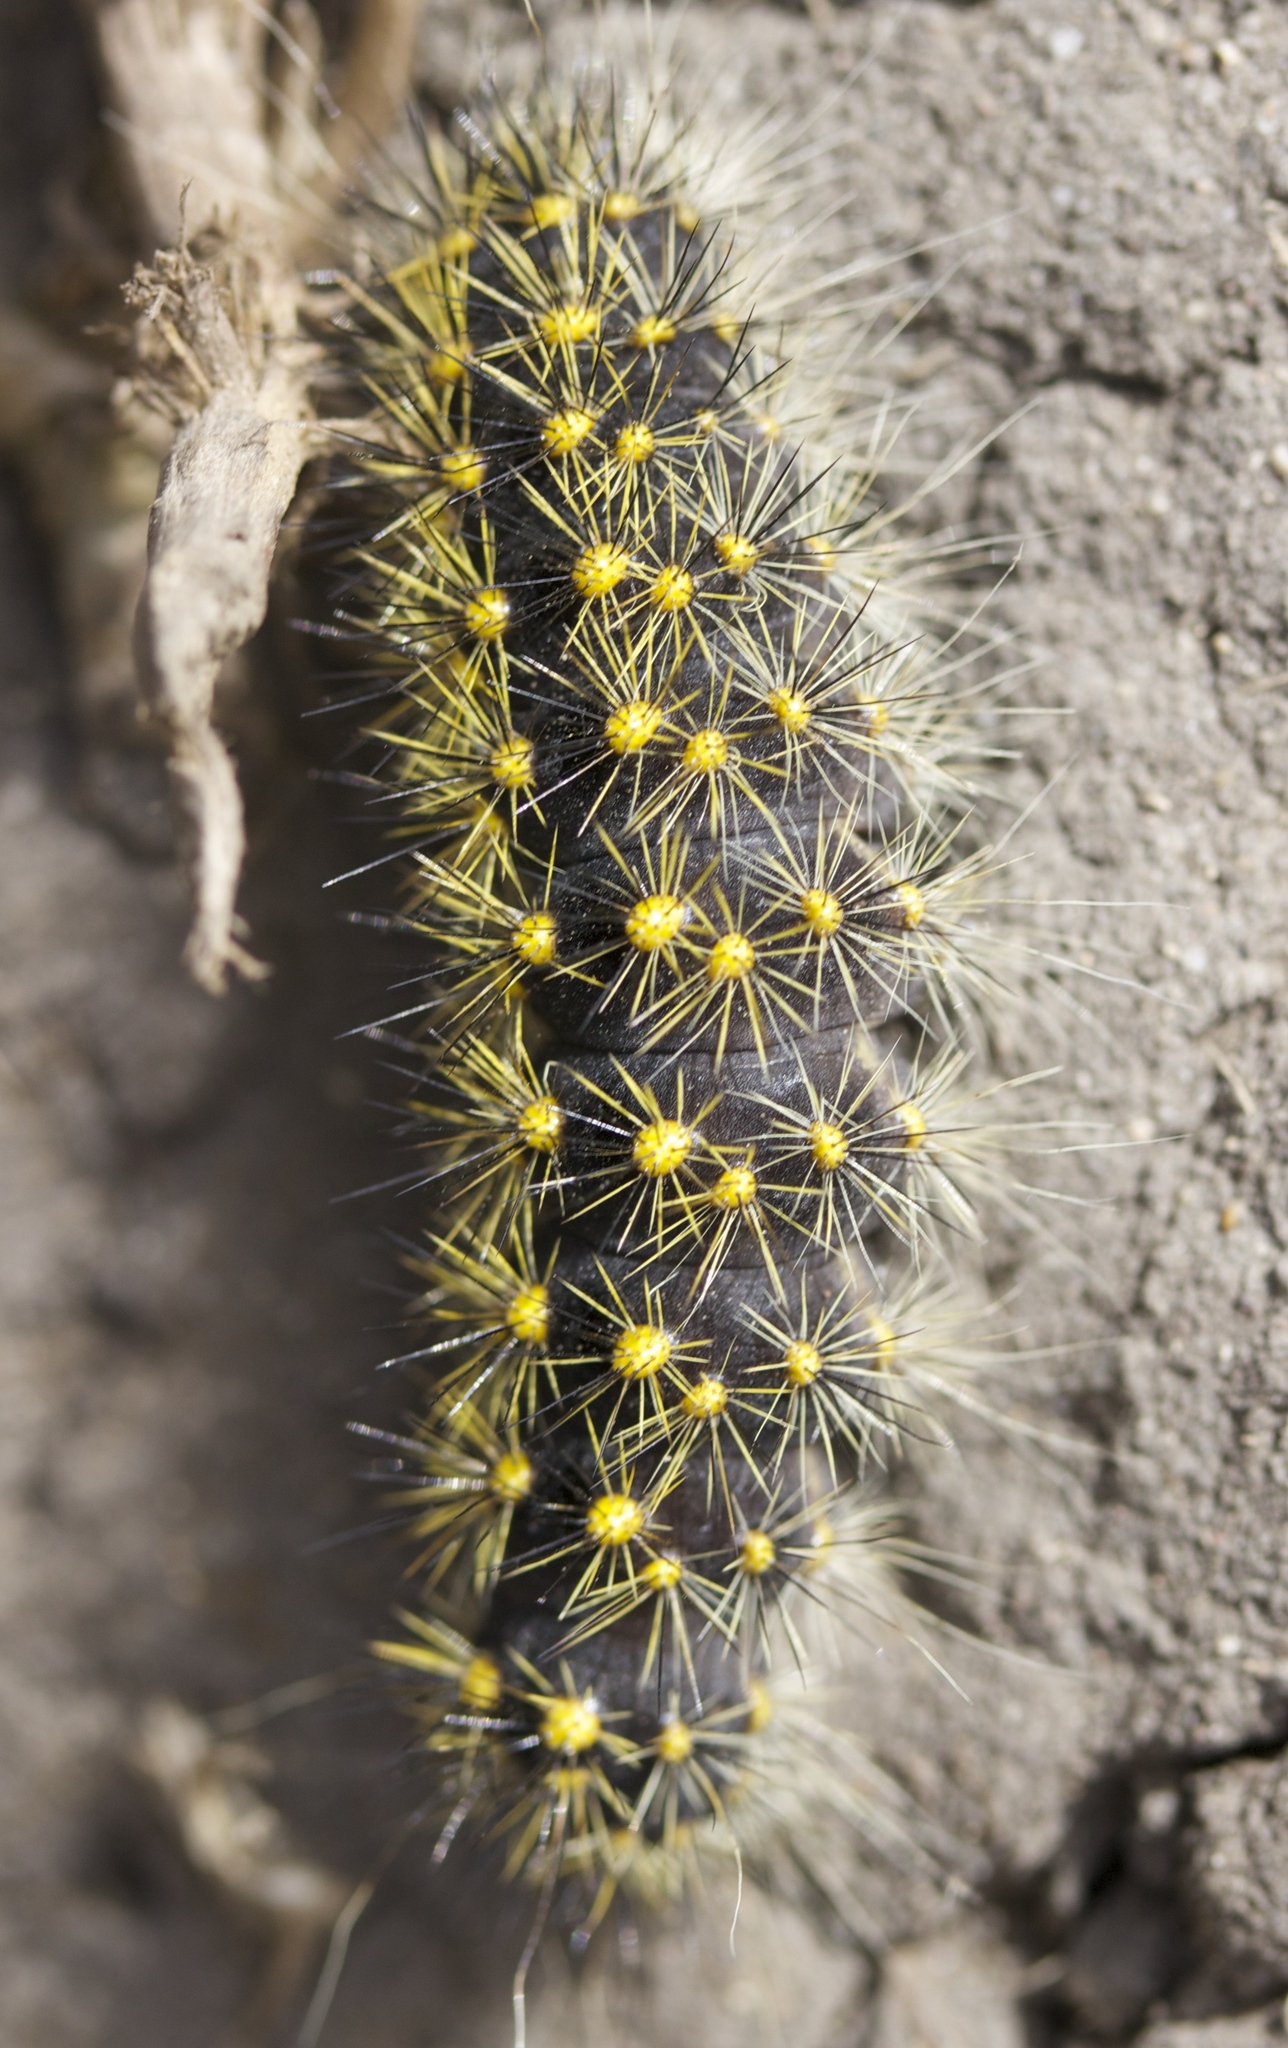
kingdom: Animalia
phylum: Arthropoda
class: Insecta
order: Lepidoptera
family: Noctuidae
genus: Acronicta
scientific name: Acronicta spinea
